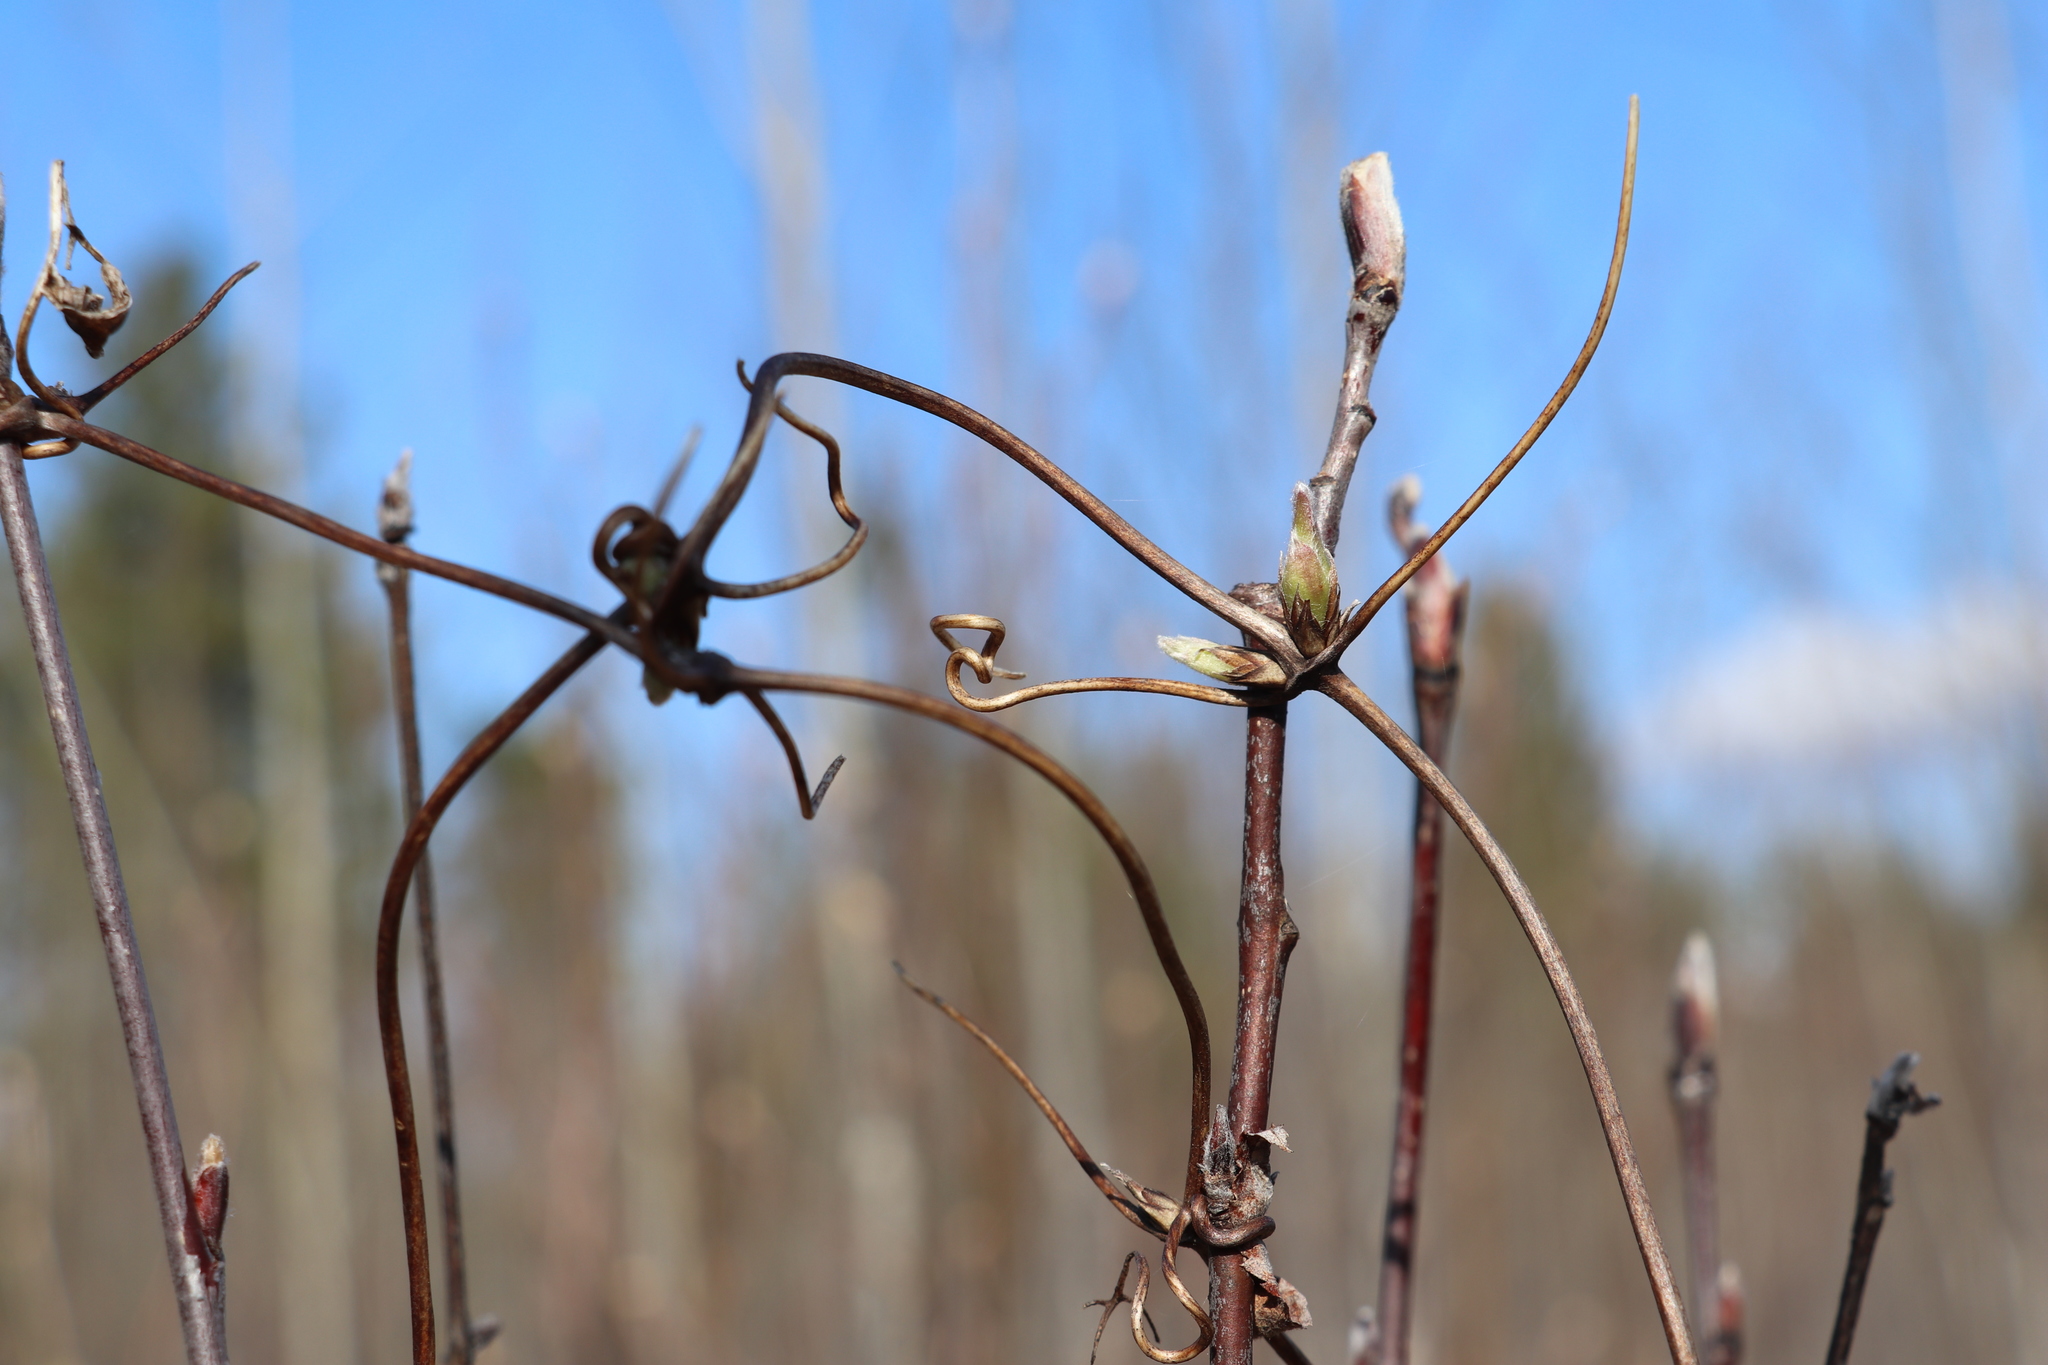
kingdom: Plantae
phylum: Tracheophyta
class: Magnoliopsida
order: Ranunculales
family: Ranunculaceae
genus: Clematis
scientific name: Clematis sibirica
